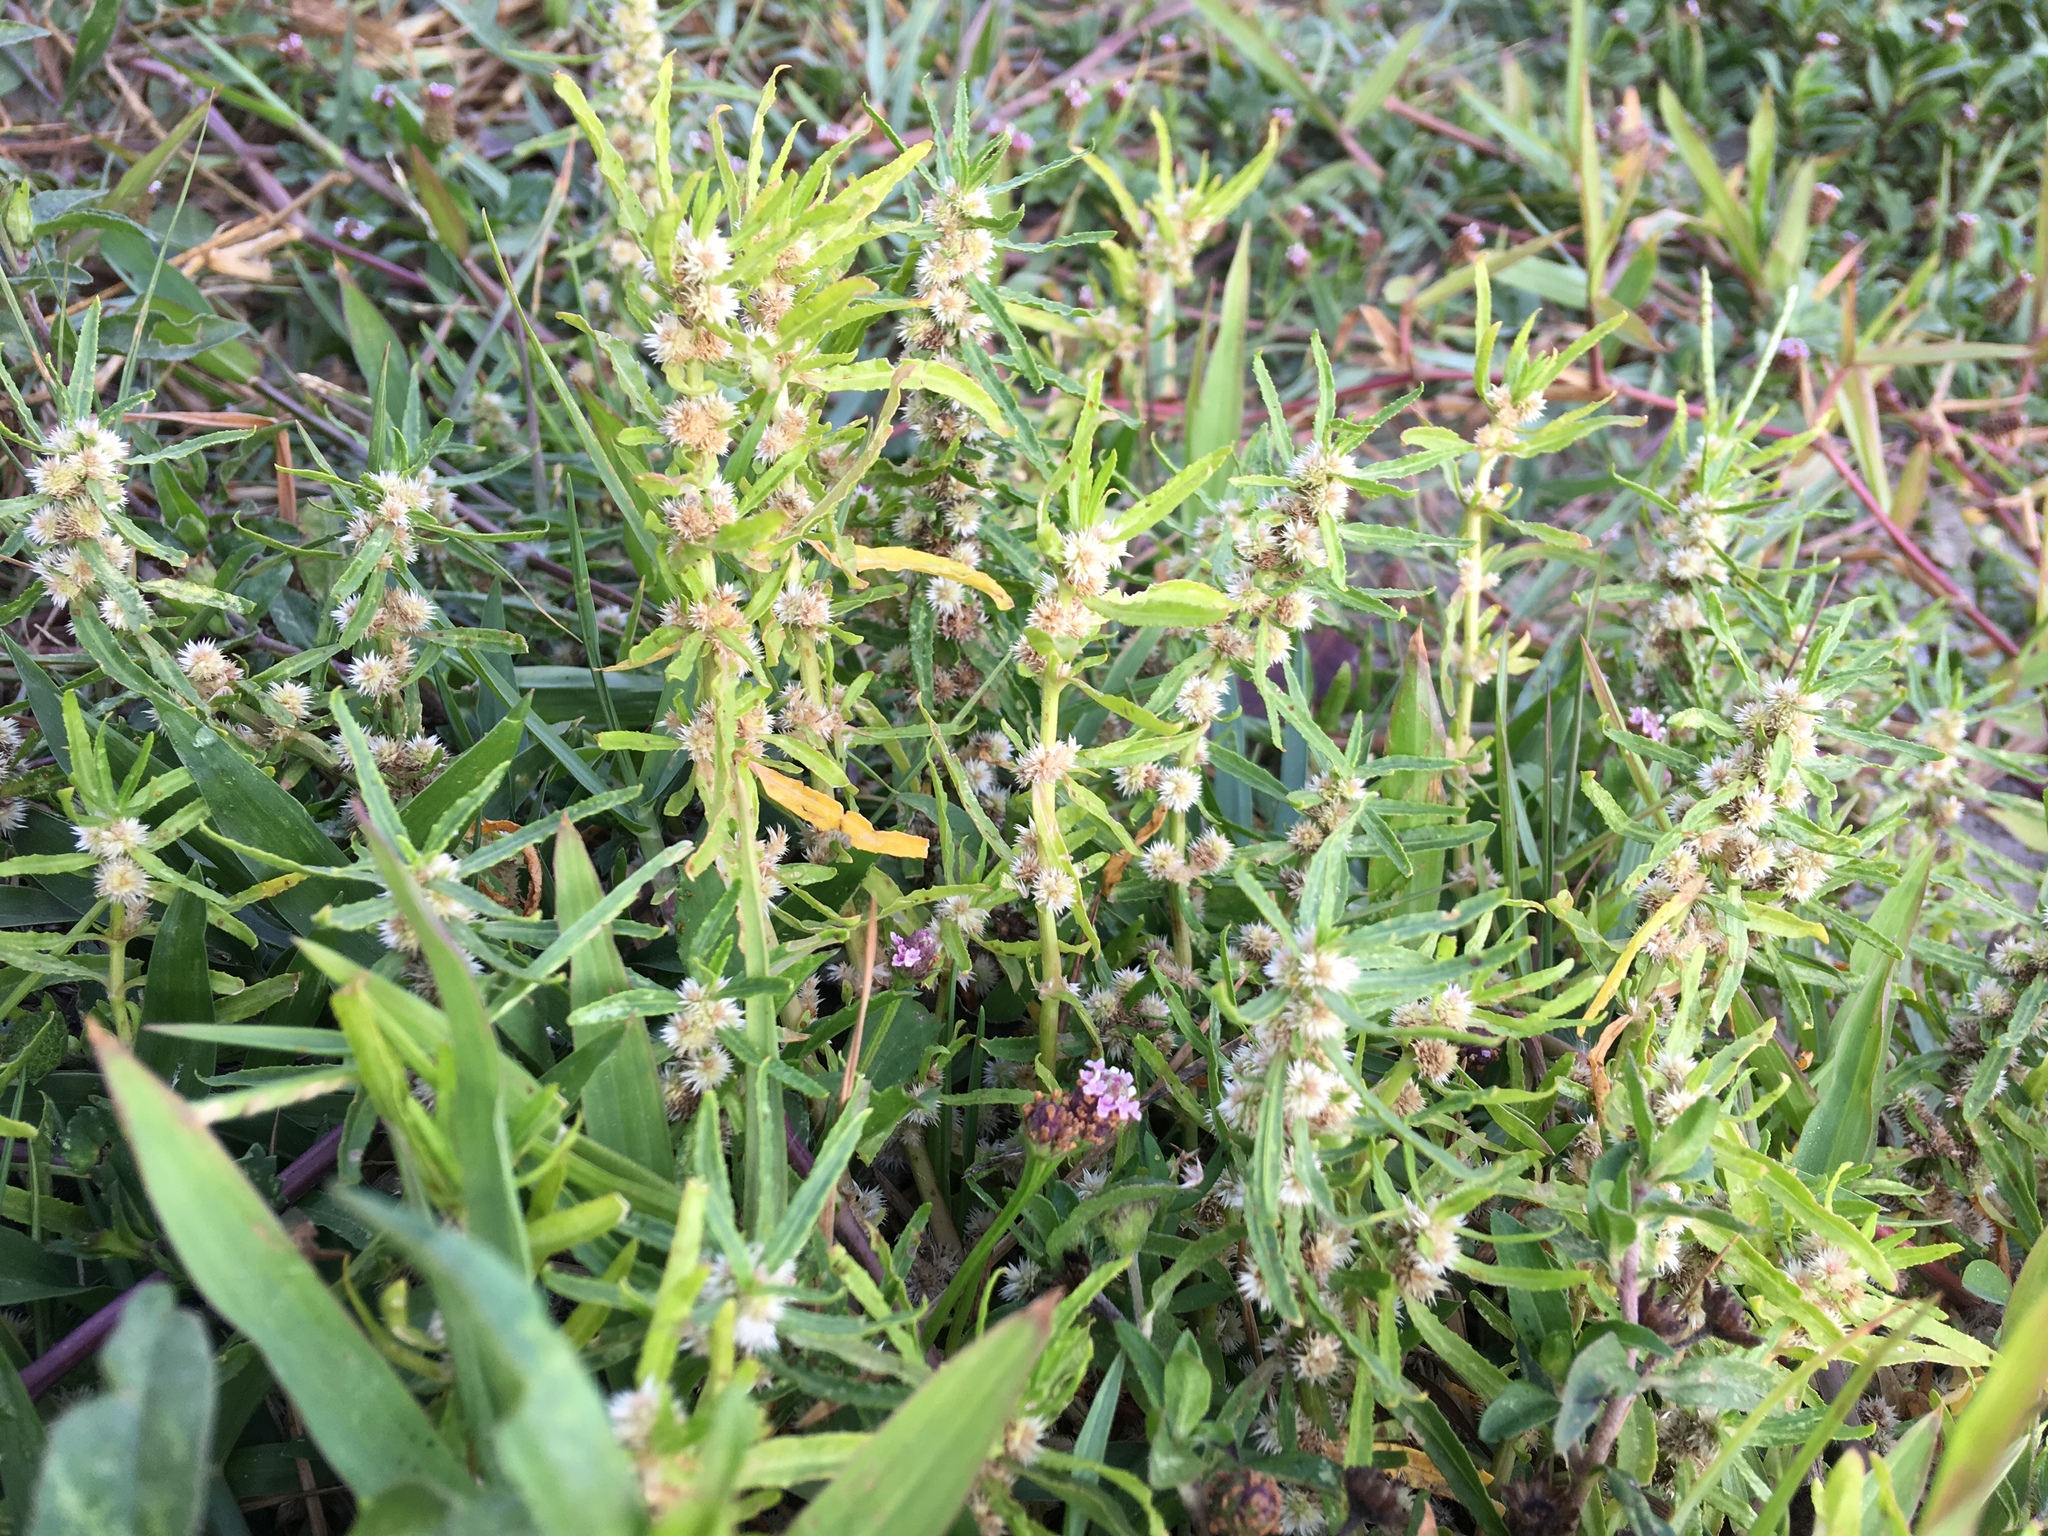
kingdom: Plantae
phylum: Tracheophyta
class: Magnoliopsida
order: Caryophyllales
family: Amaranthaceae
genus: Alternanthera
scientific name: Alternanthera sessilis
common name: Sessile joyweed
